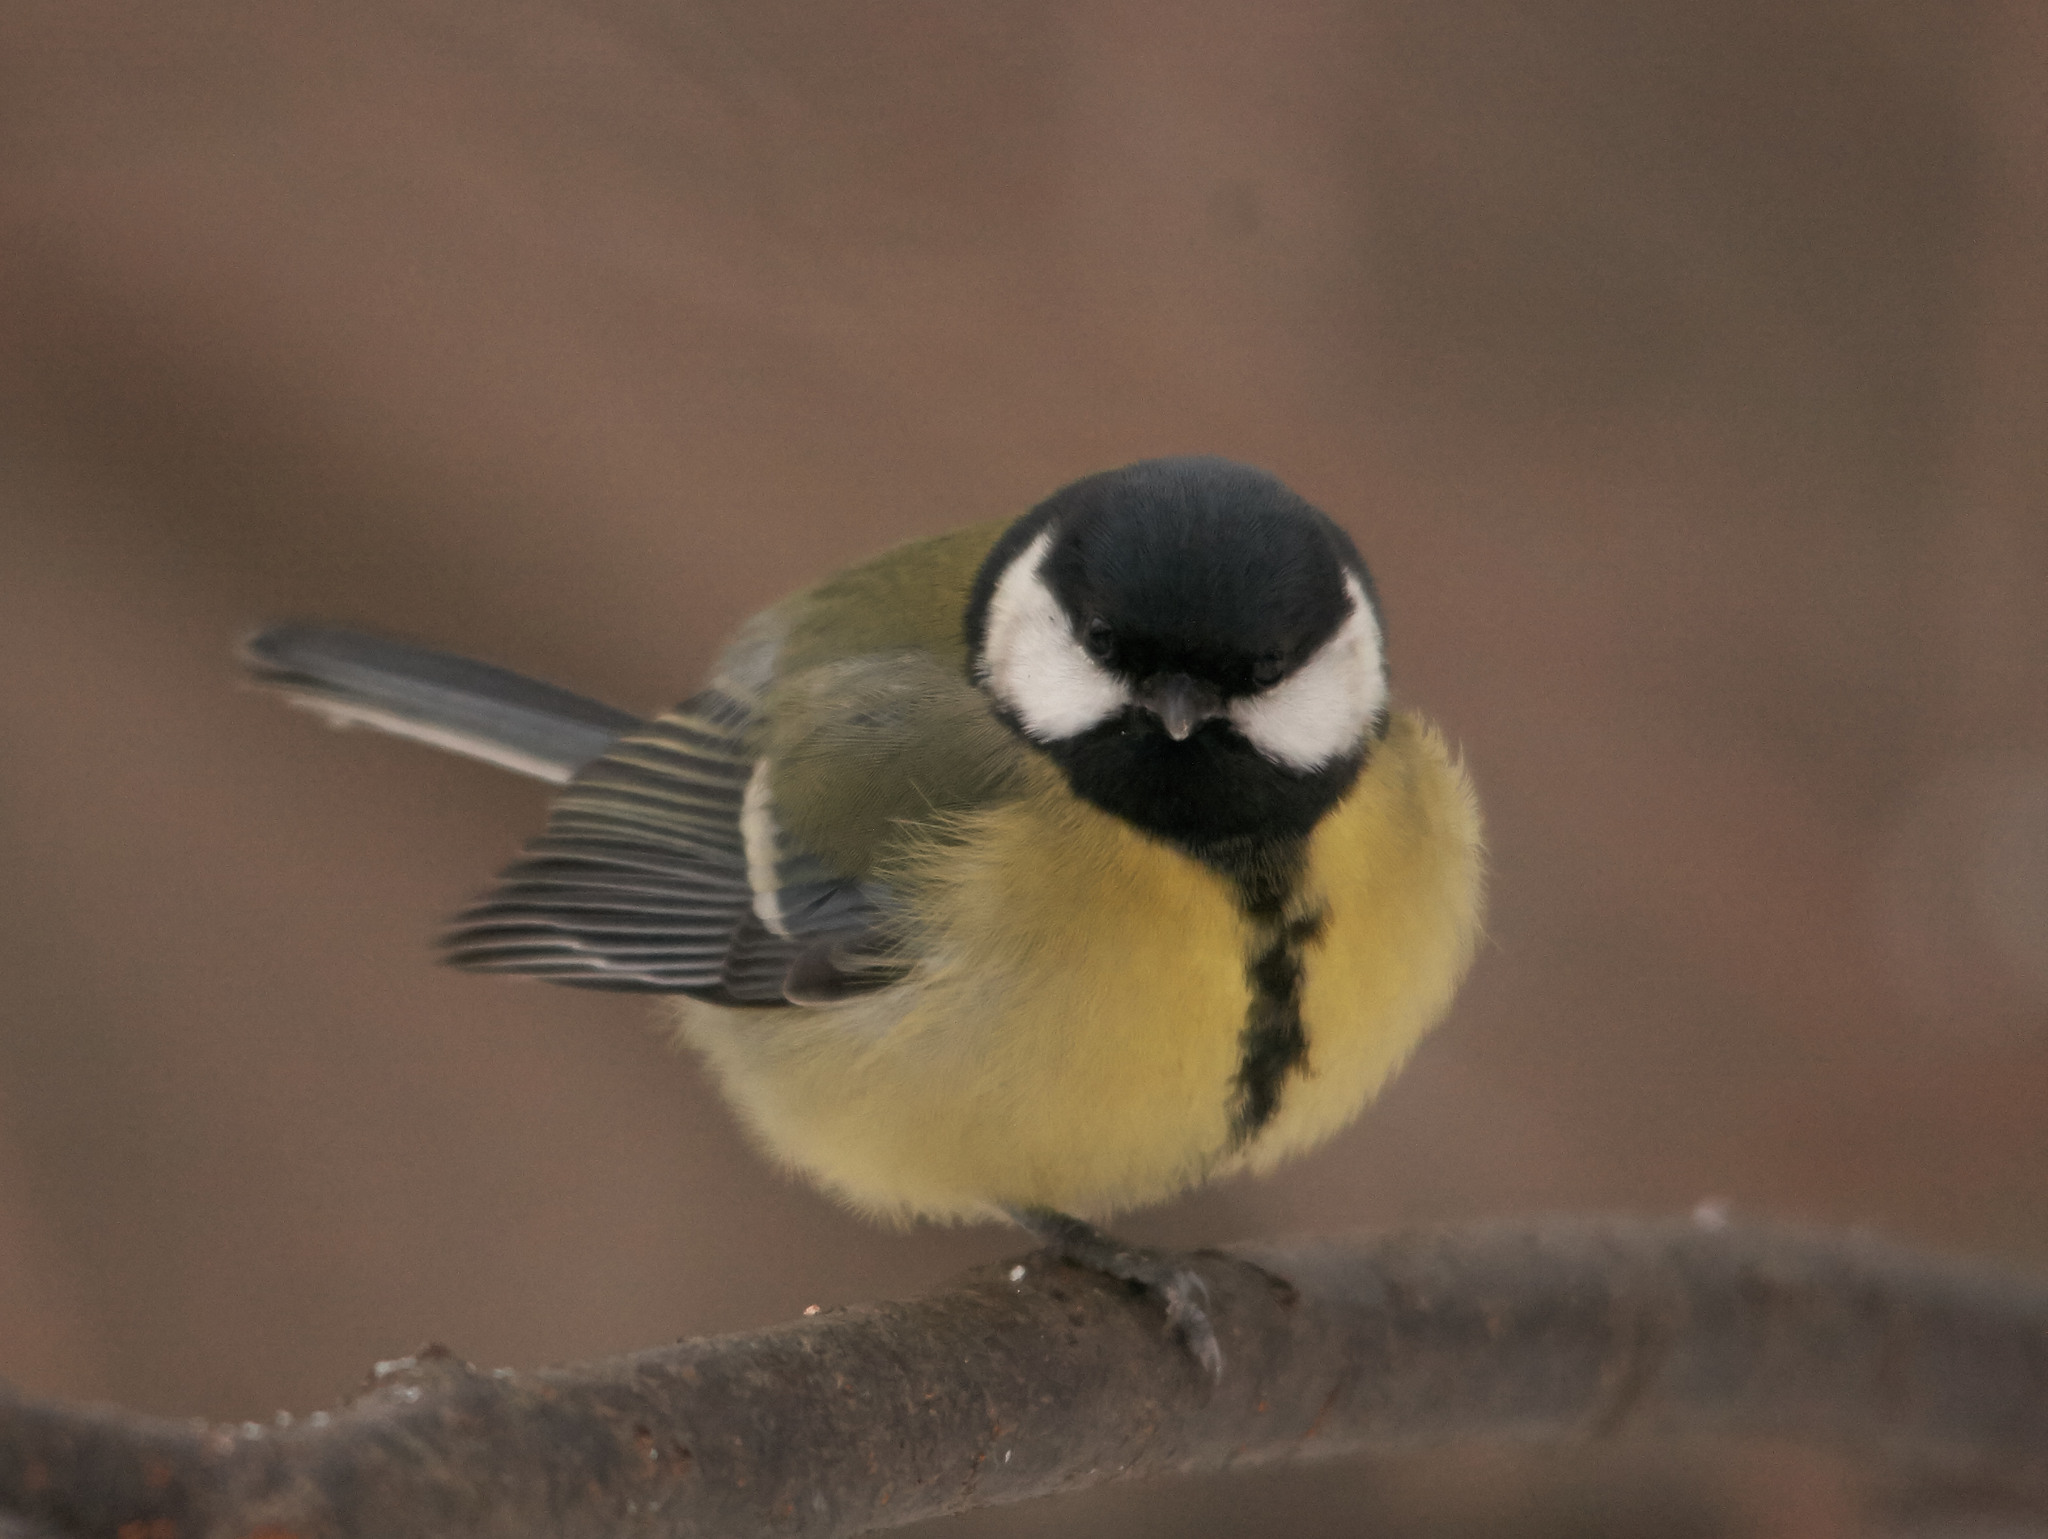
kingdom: Animalia
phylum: Chordata
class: Aves
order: Passeriformes
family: Paridae
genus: Parus
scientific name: Parus major
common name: Great tit
